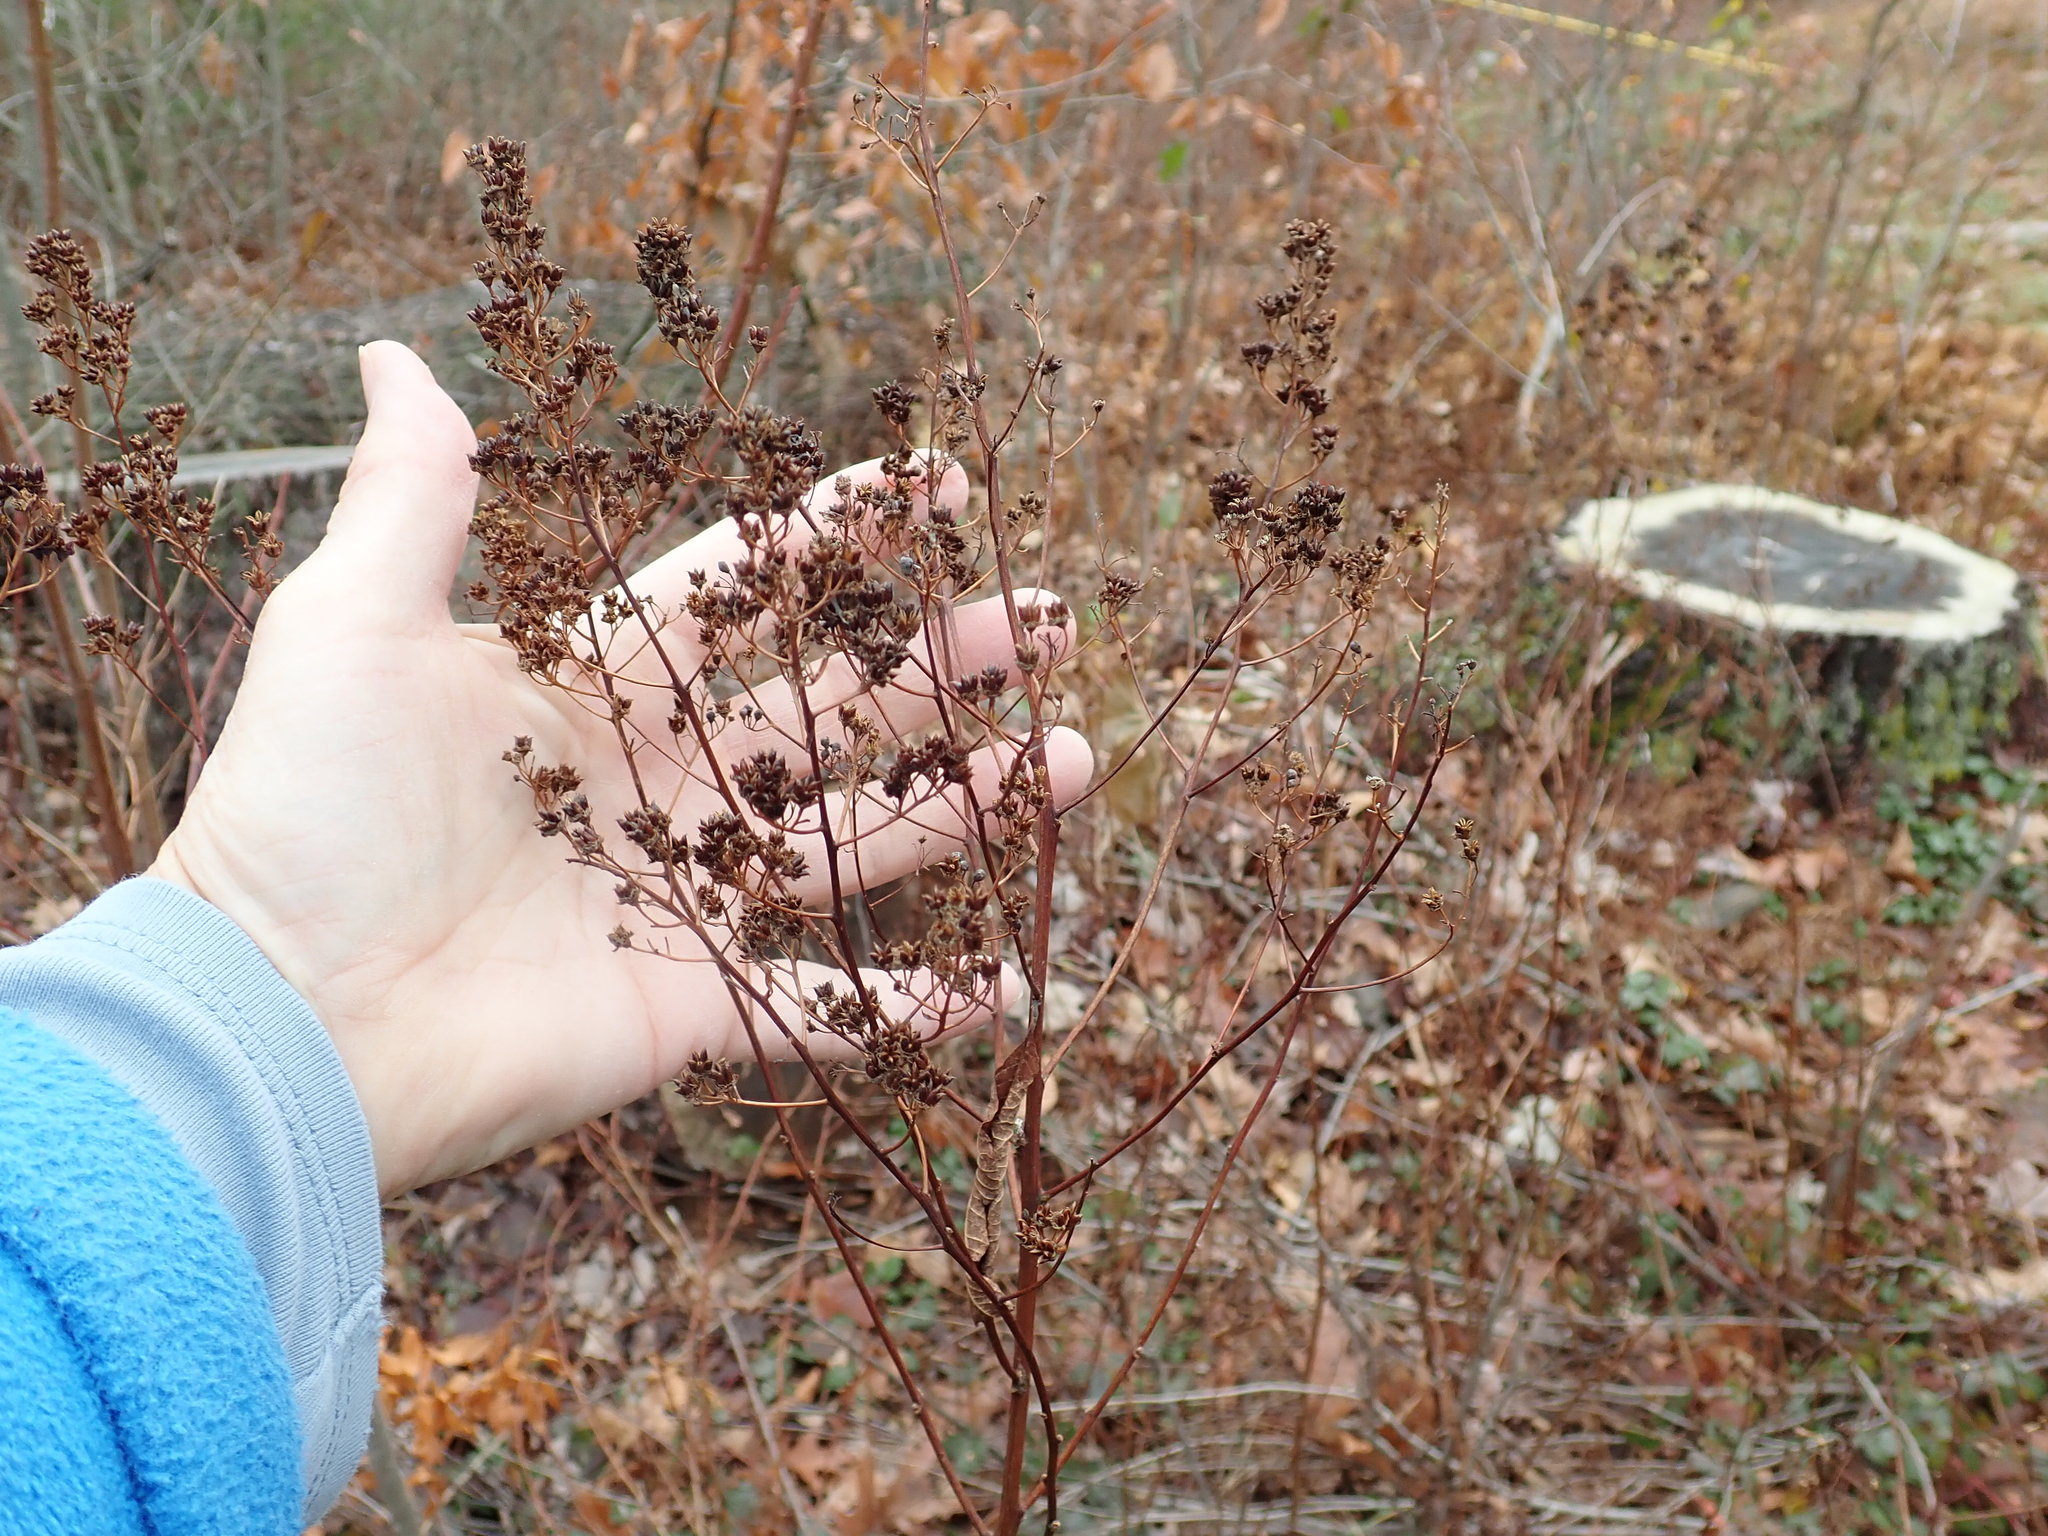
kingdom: Plantae
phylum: Tracheophyta
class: Magnoliopsida
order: Rosales
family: Rosaceae
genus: Spiraea
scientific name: Spiraea alba
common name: Pale bridewort
